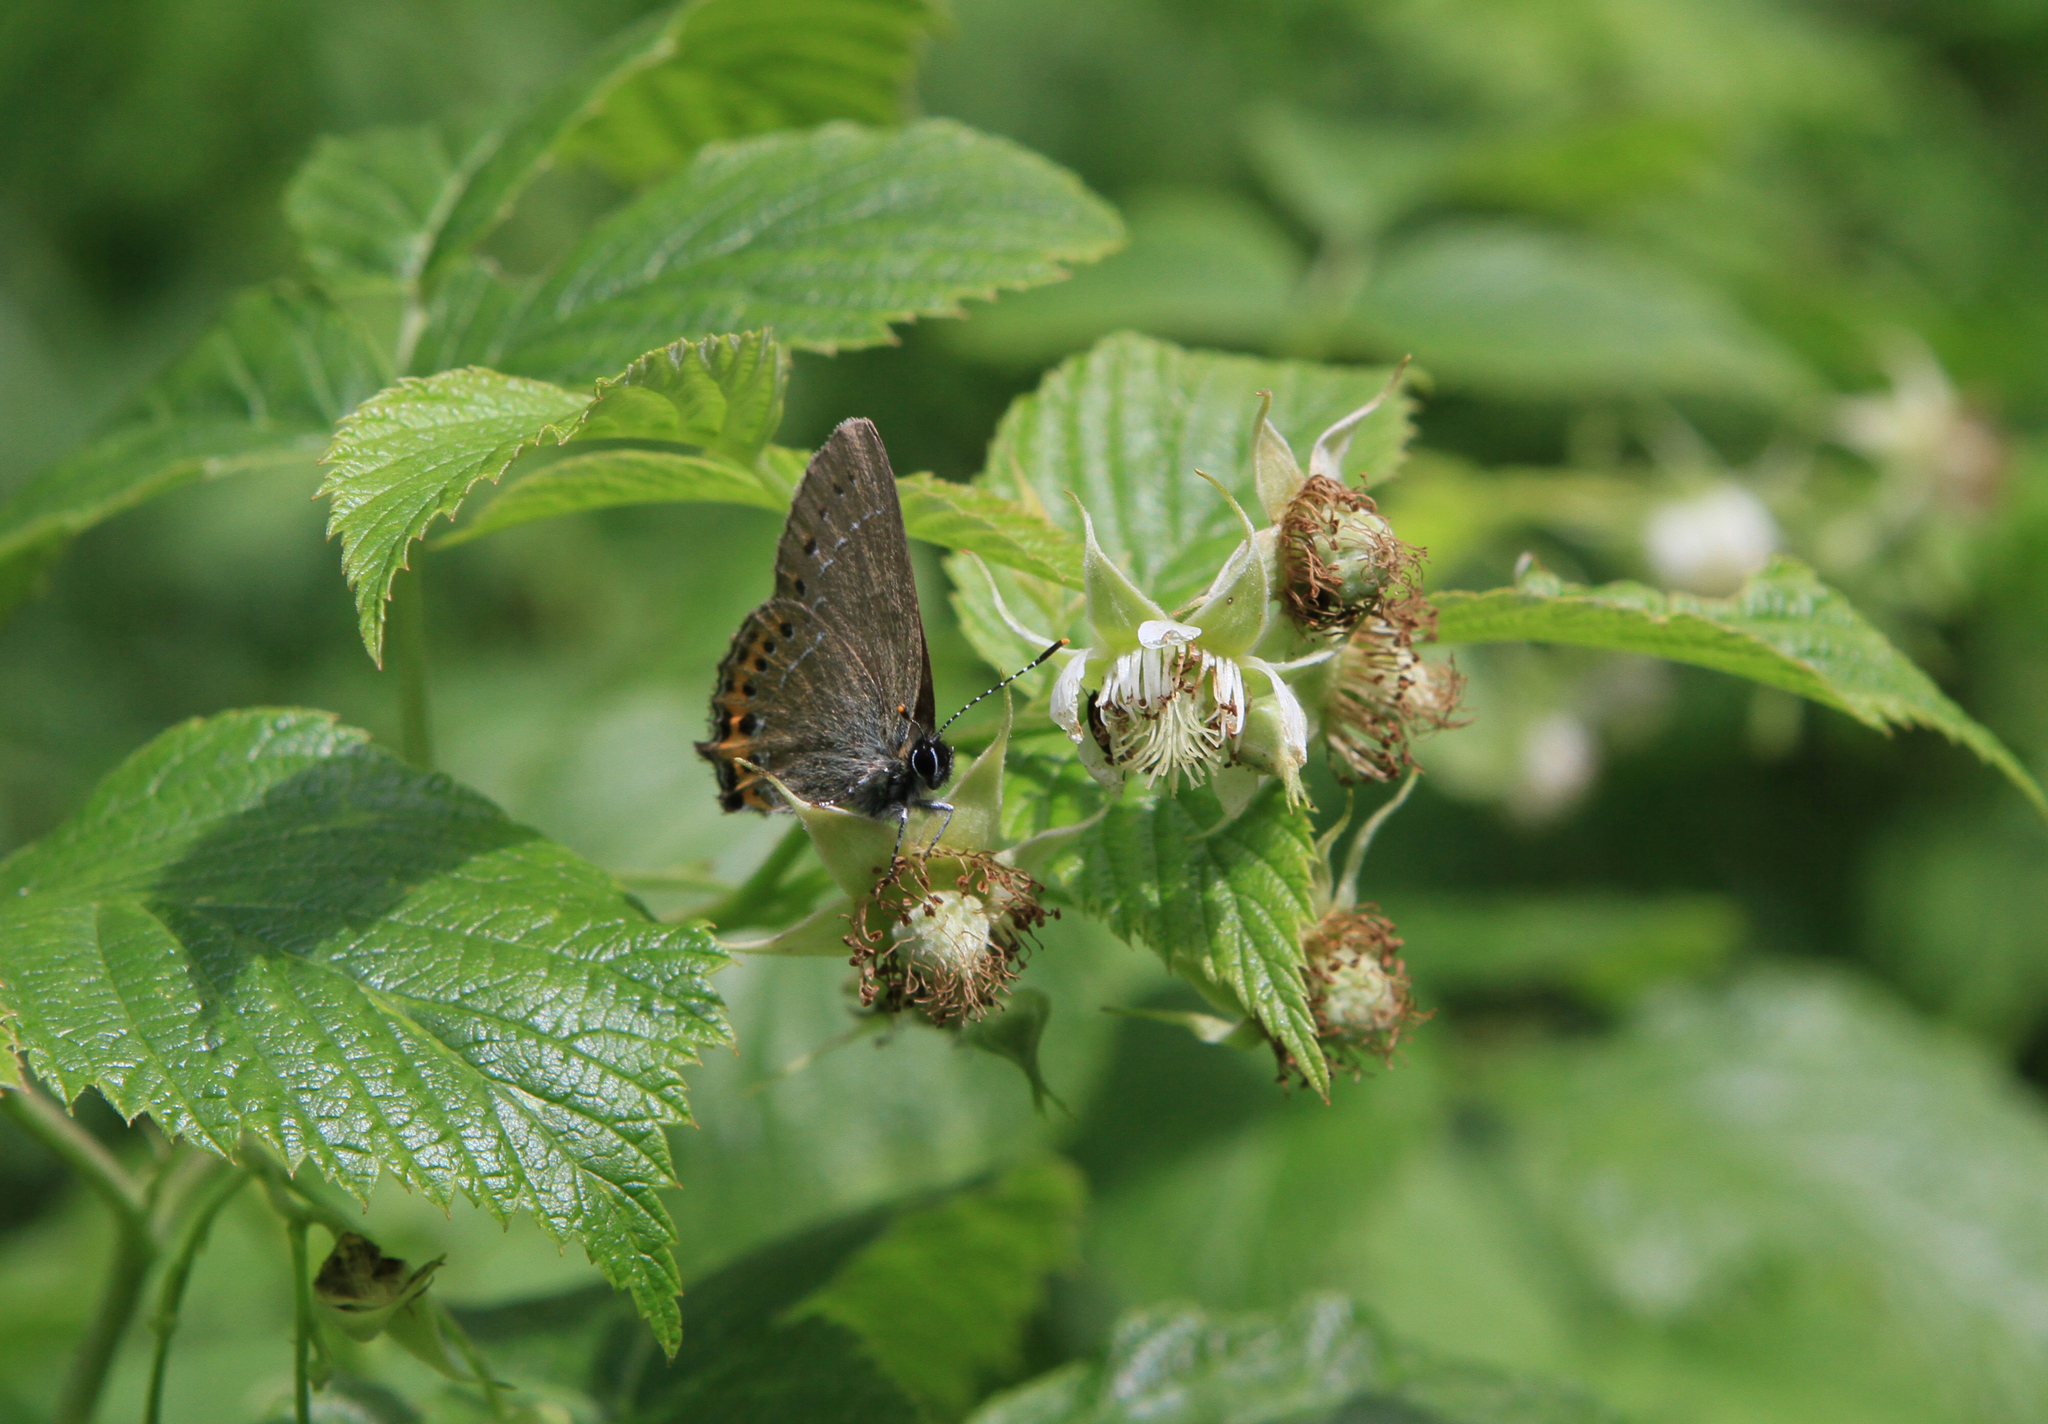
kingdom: Animalia
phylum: Arthropoda
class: Insecta
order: Lepidoptera
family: Lycaenidae
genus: Fixsenia
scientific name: Fixsenia pruni
